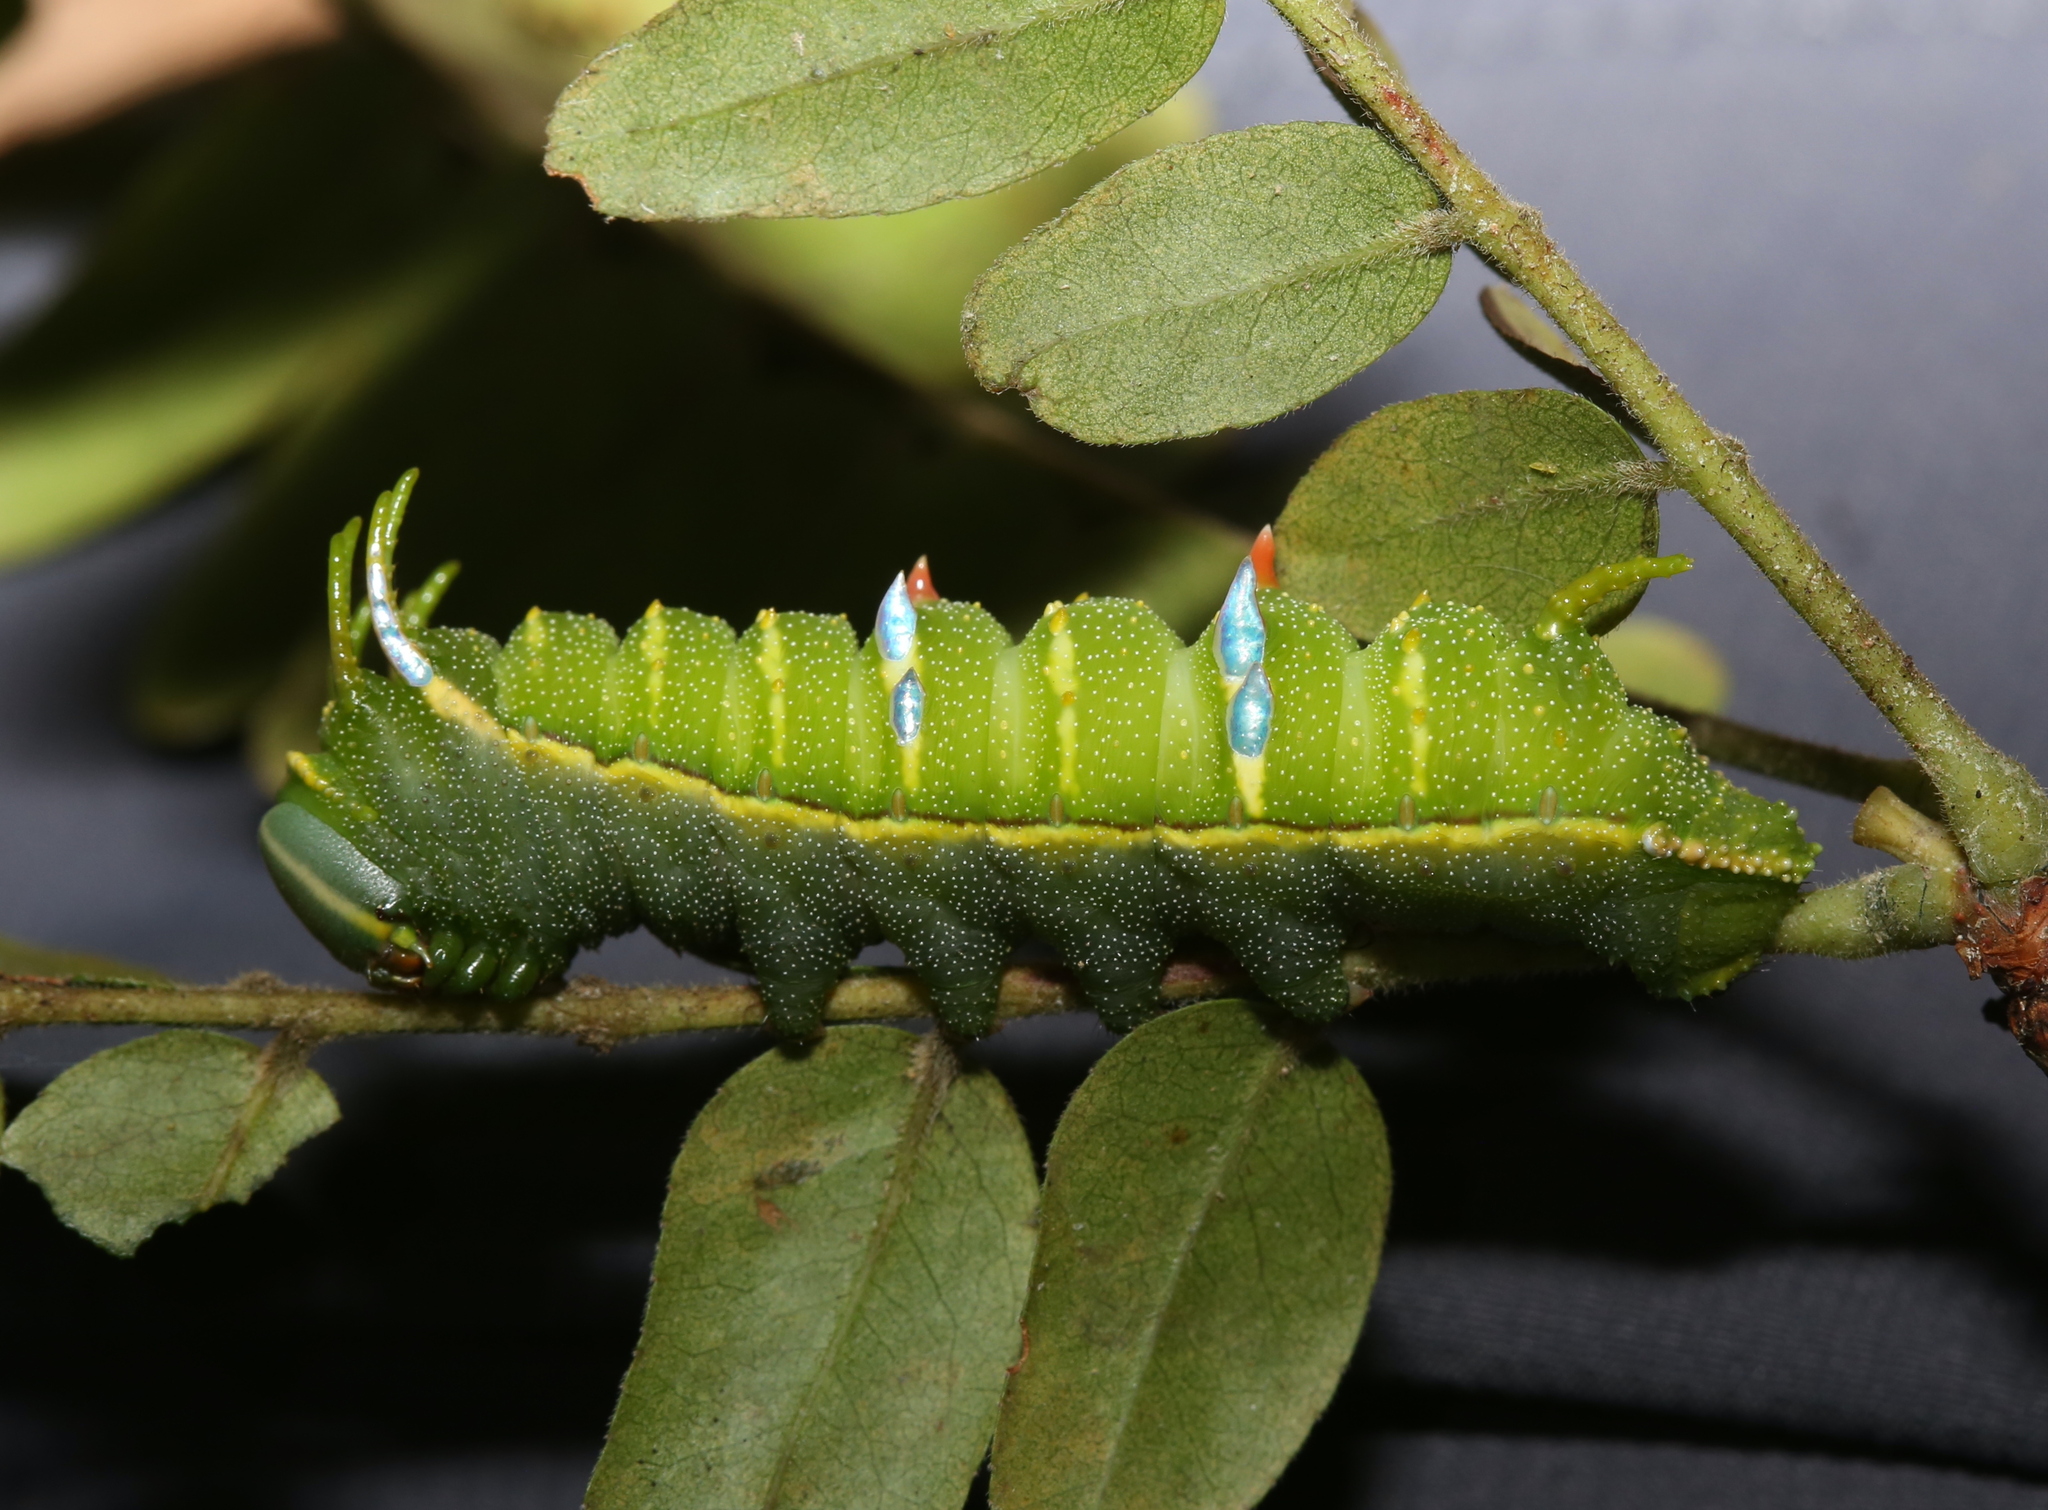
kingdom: Animalia
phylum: Arthropoda
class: Insecta
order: Lepidoptera
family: Saturniidae
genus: Syssphinx
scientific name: Syssphinx bisecta
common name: Bisected honey locust moth
